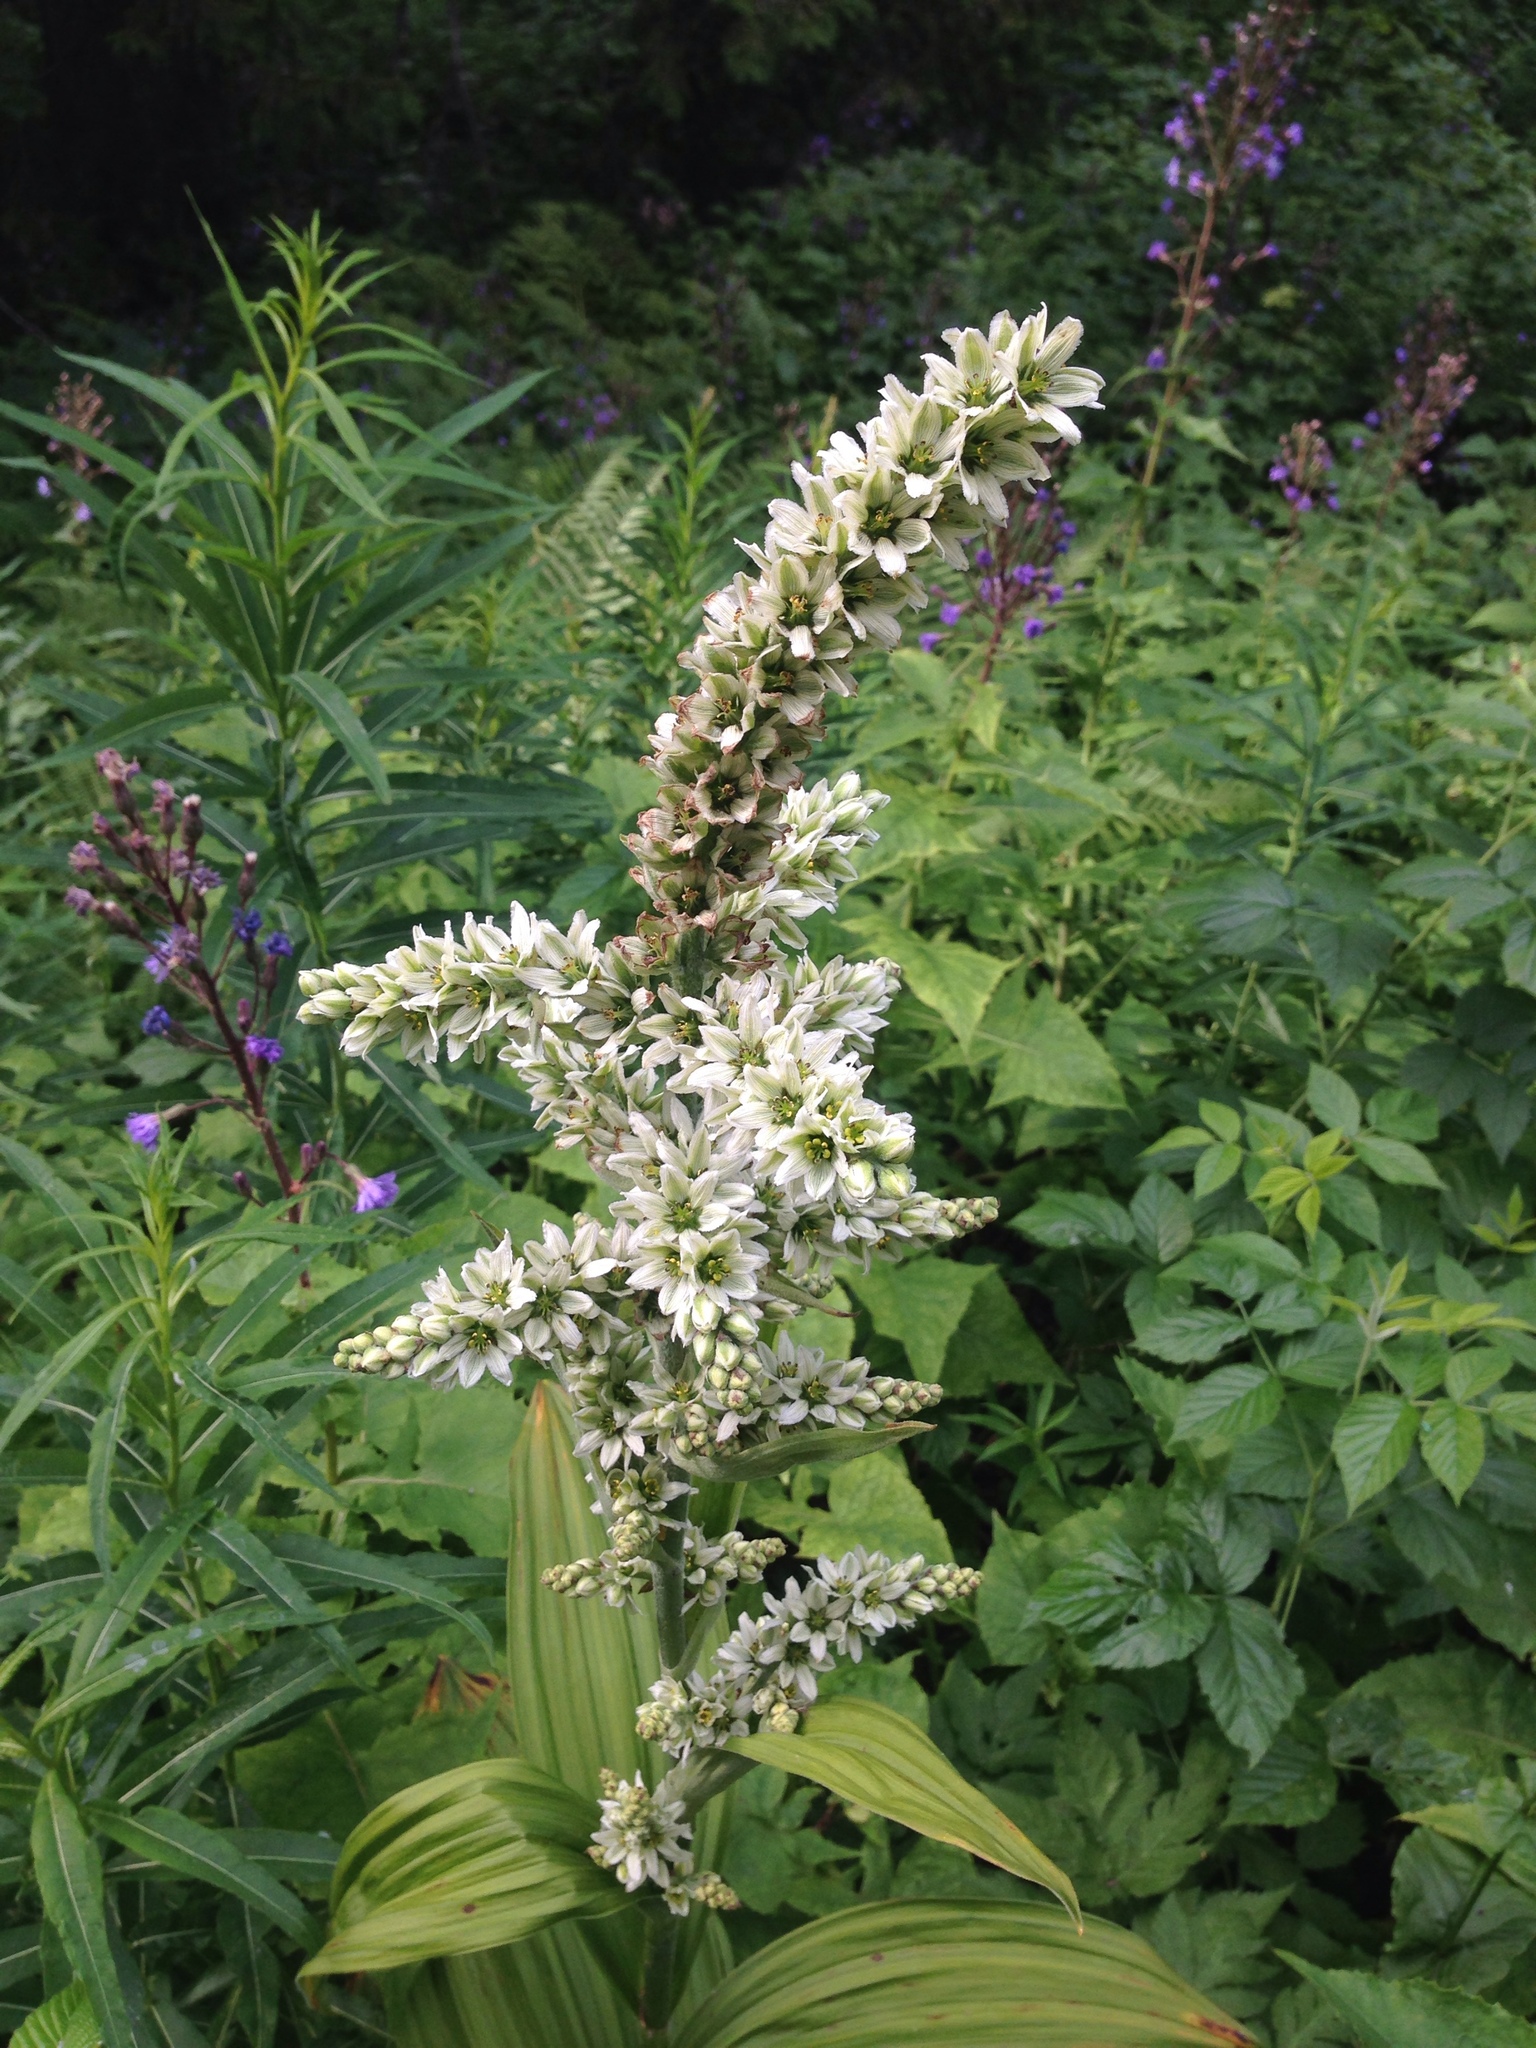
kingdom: Plantae
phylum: Tracheophyta
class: Liliopsida
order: Liliales
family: Melanthiaceae
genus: Veratrum
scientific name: Veratrum album
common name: White veratrum
